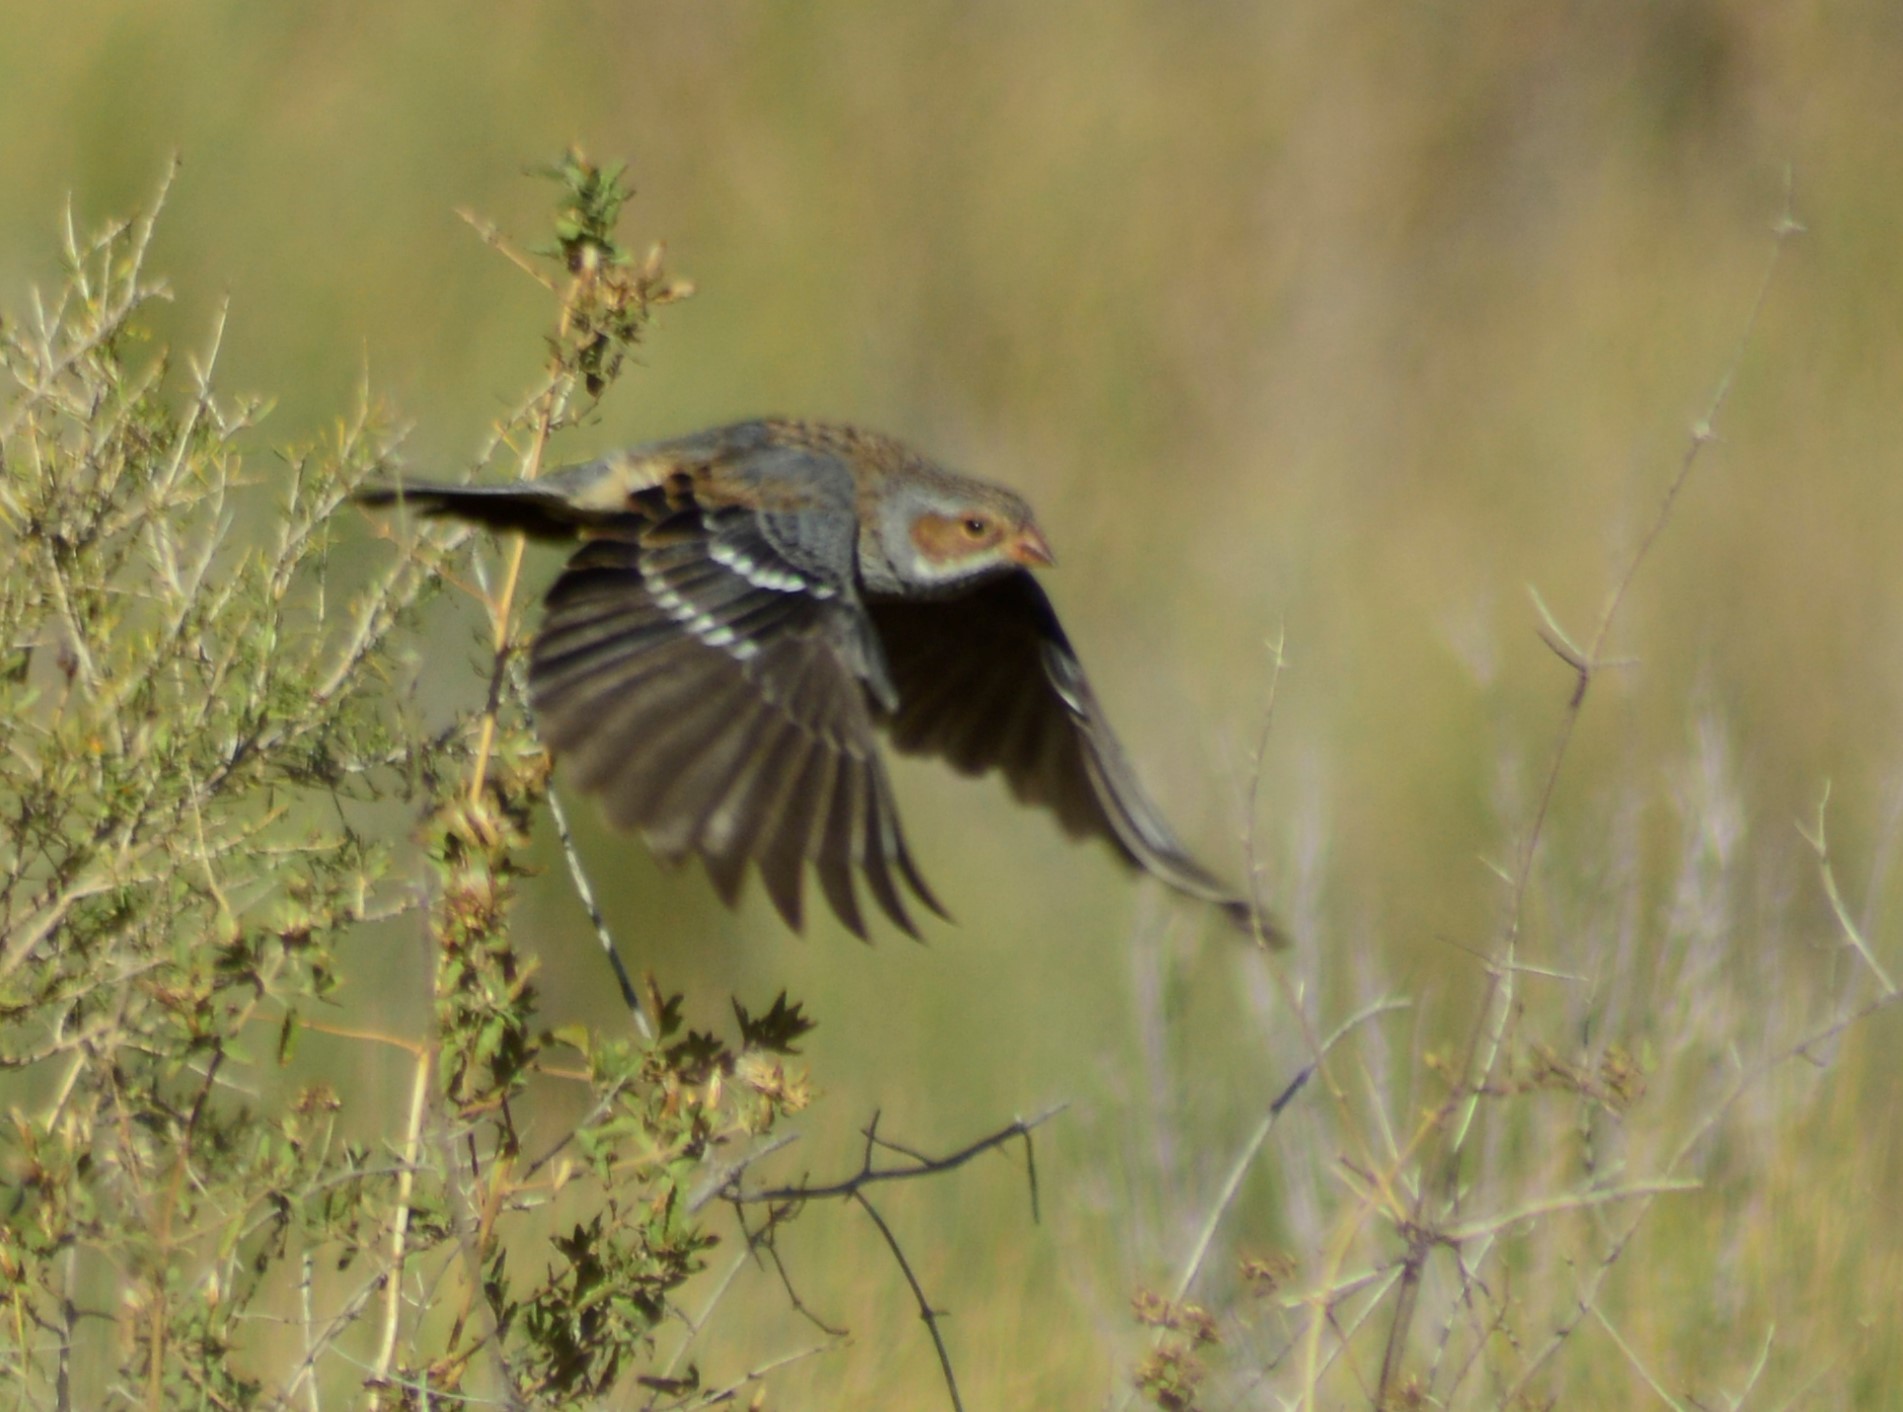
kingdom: Animalia
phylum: Chordata
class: Aves
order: Passeriformes
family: Thraupidae
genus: Rhopospina
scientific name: Rhopospina fruticeti
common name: Mourning sierra finch
